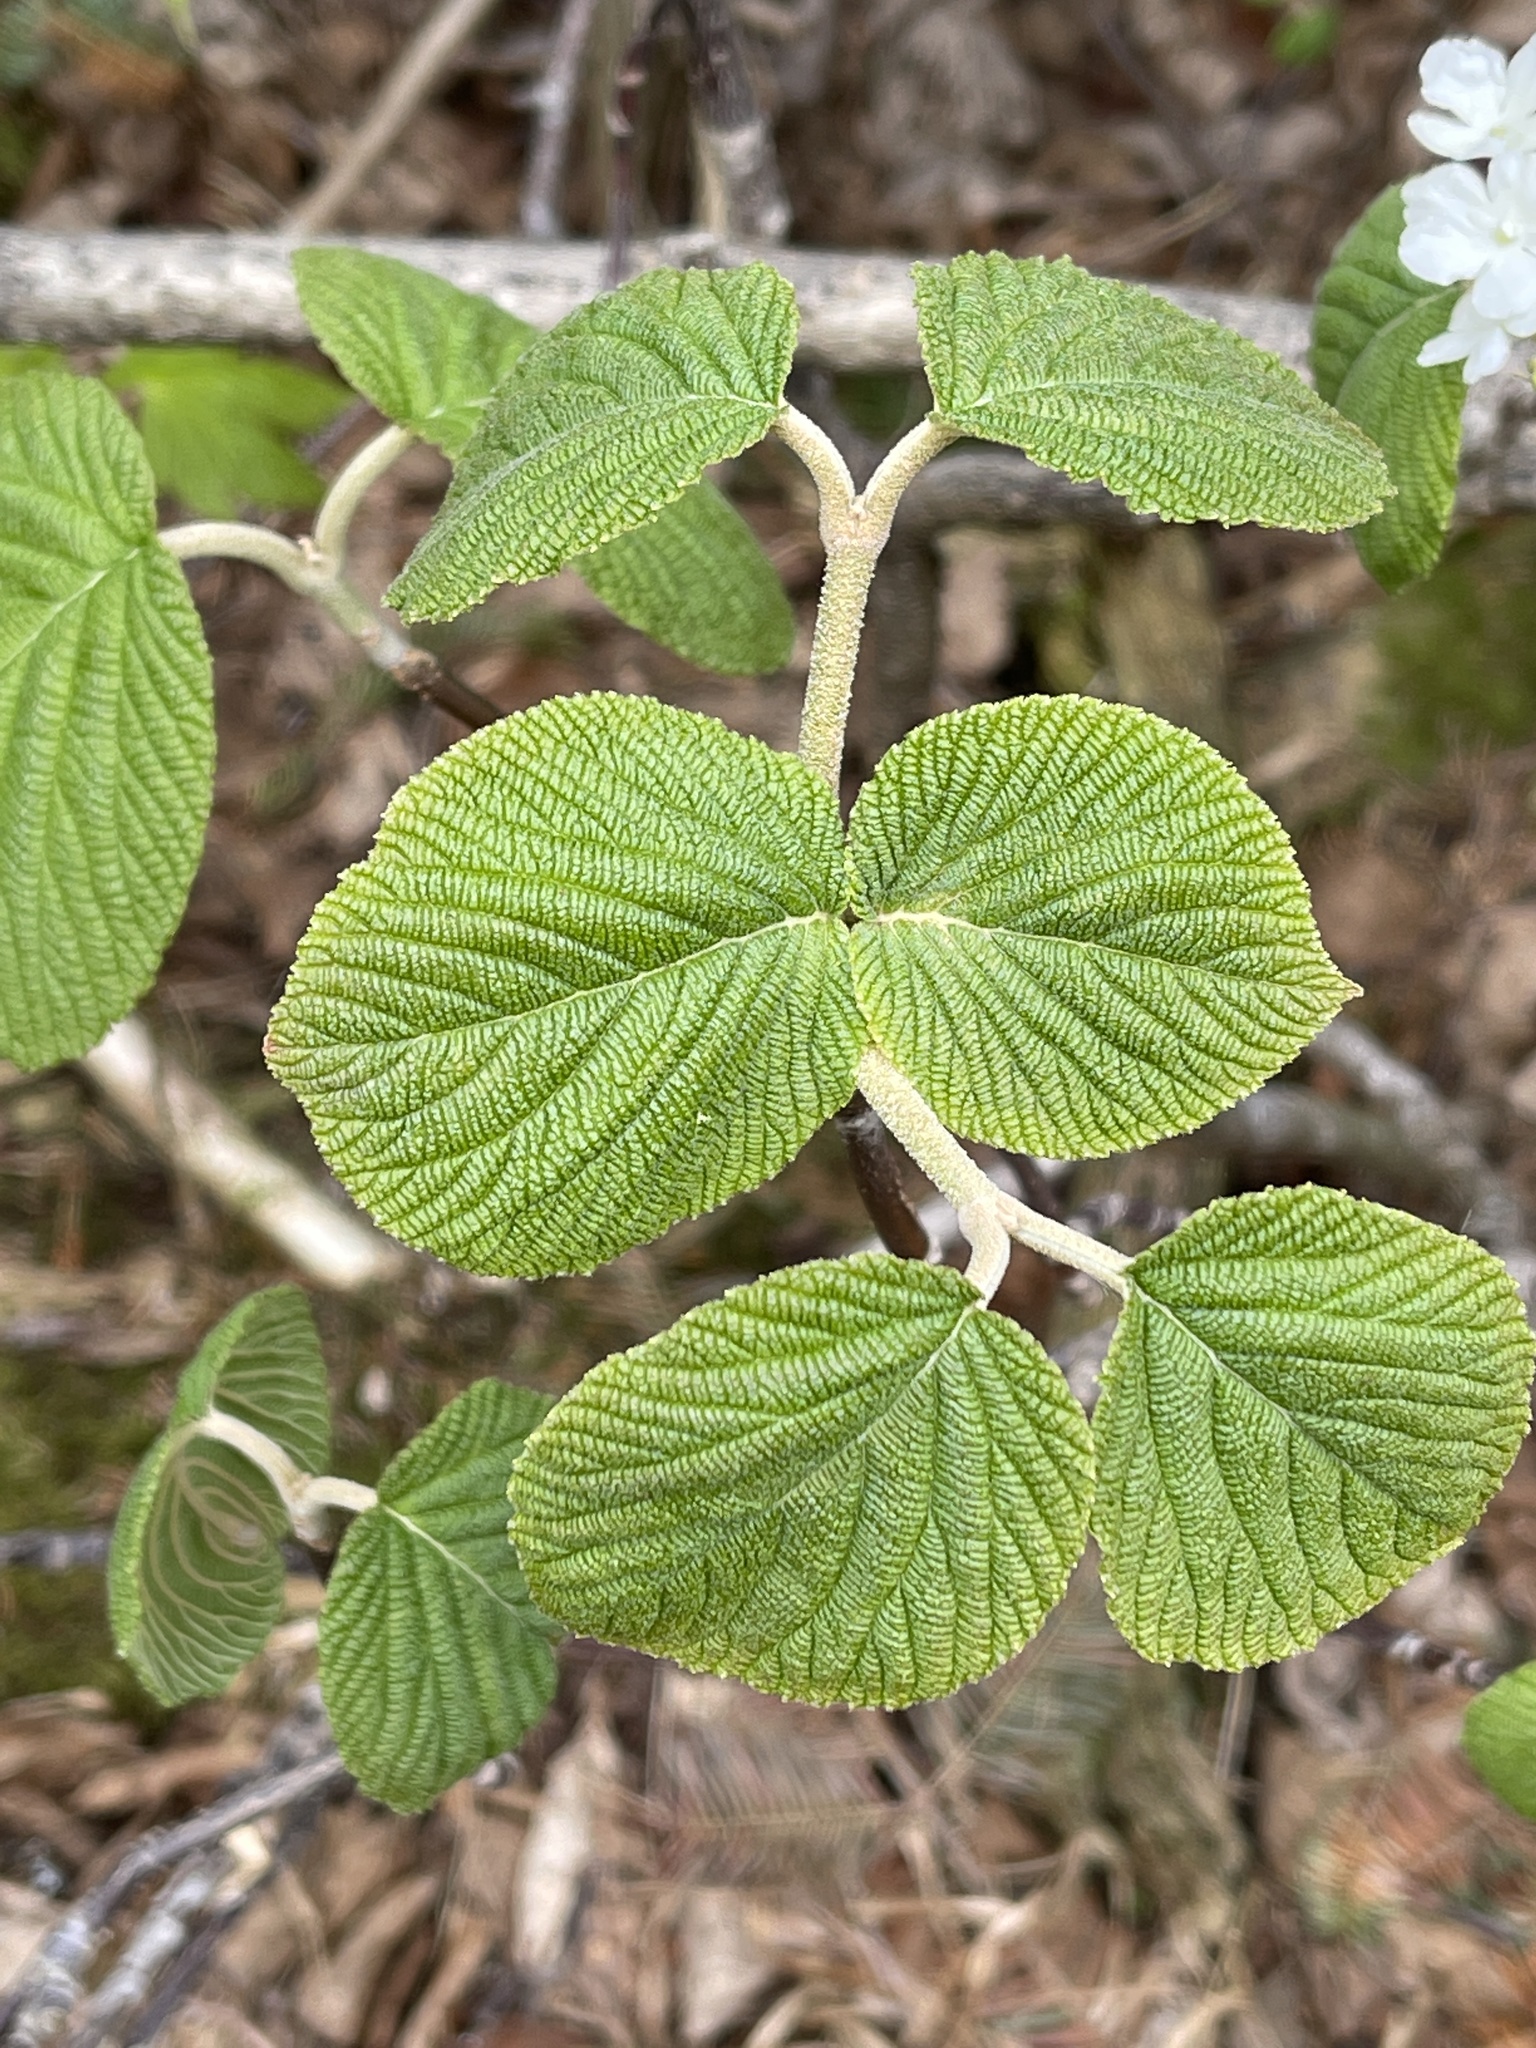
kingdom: Plantae
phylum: Tracheophyta
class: Magnoliopsida
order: Dipsacales
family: Viburnaceae
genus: Viburnum
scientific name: Viburnum lantanoides
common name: Hobblebush
